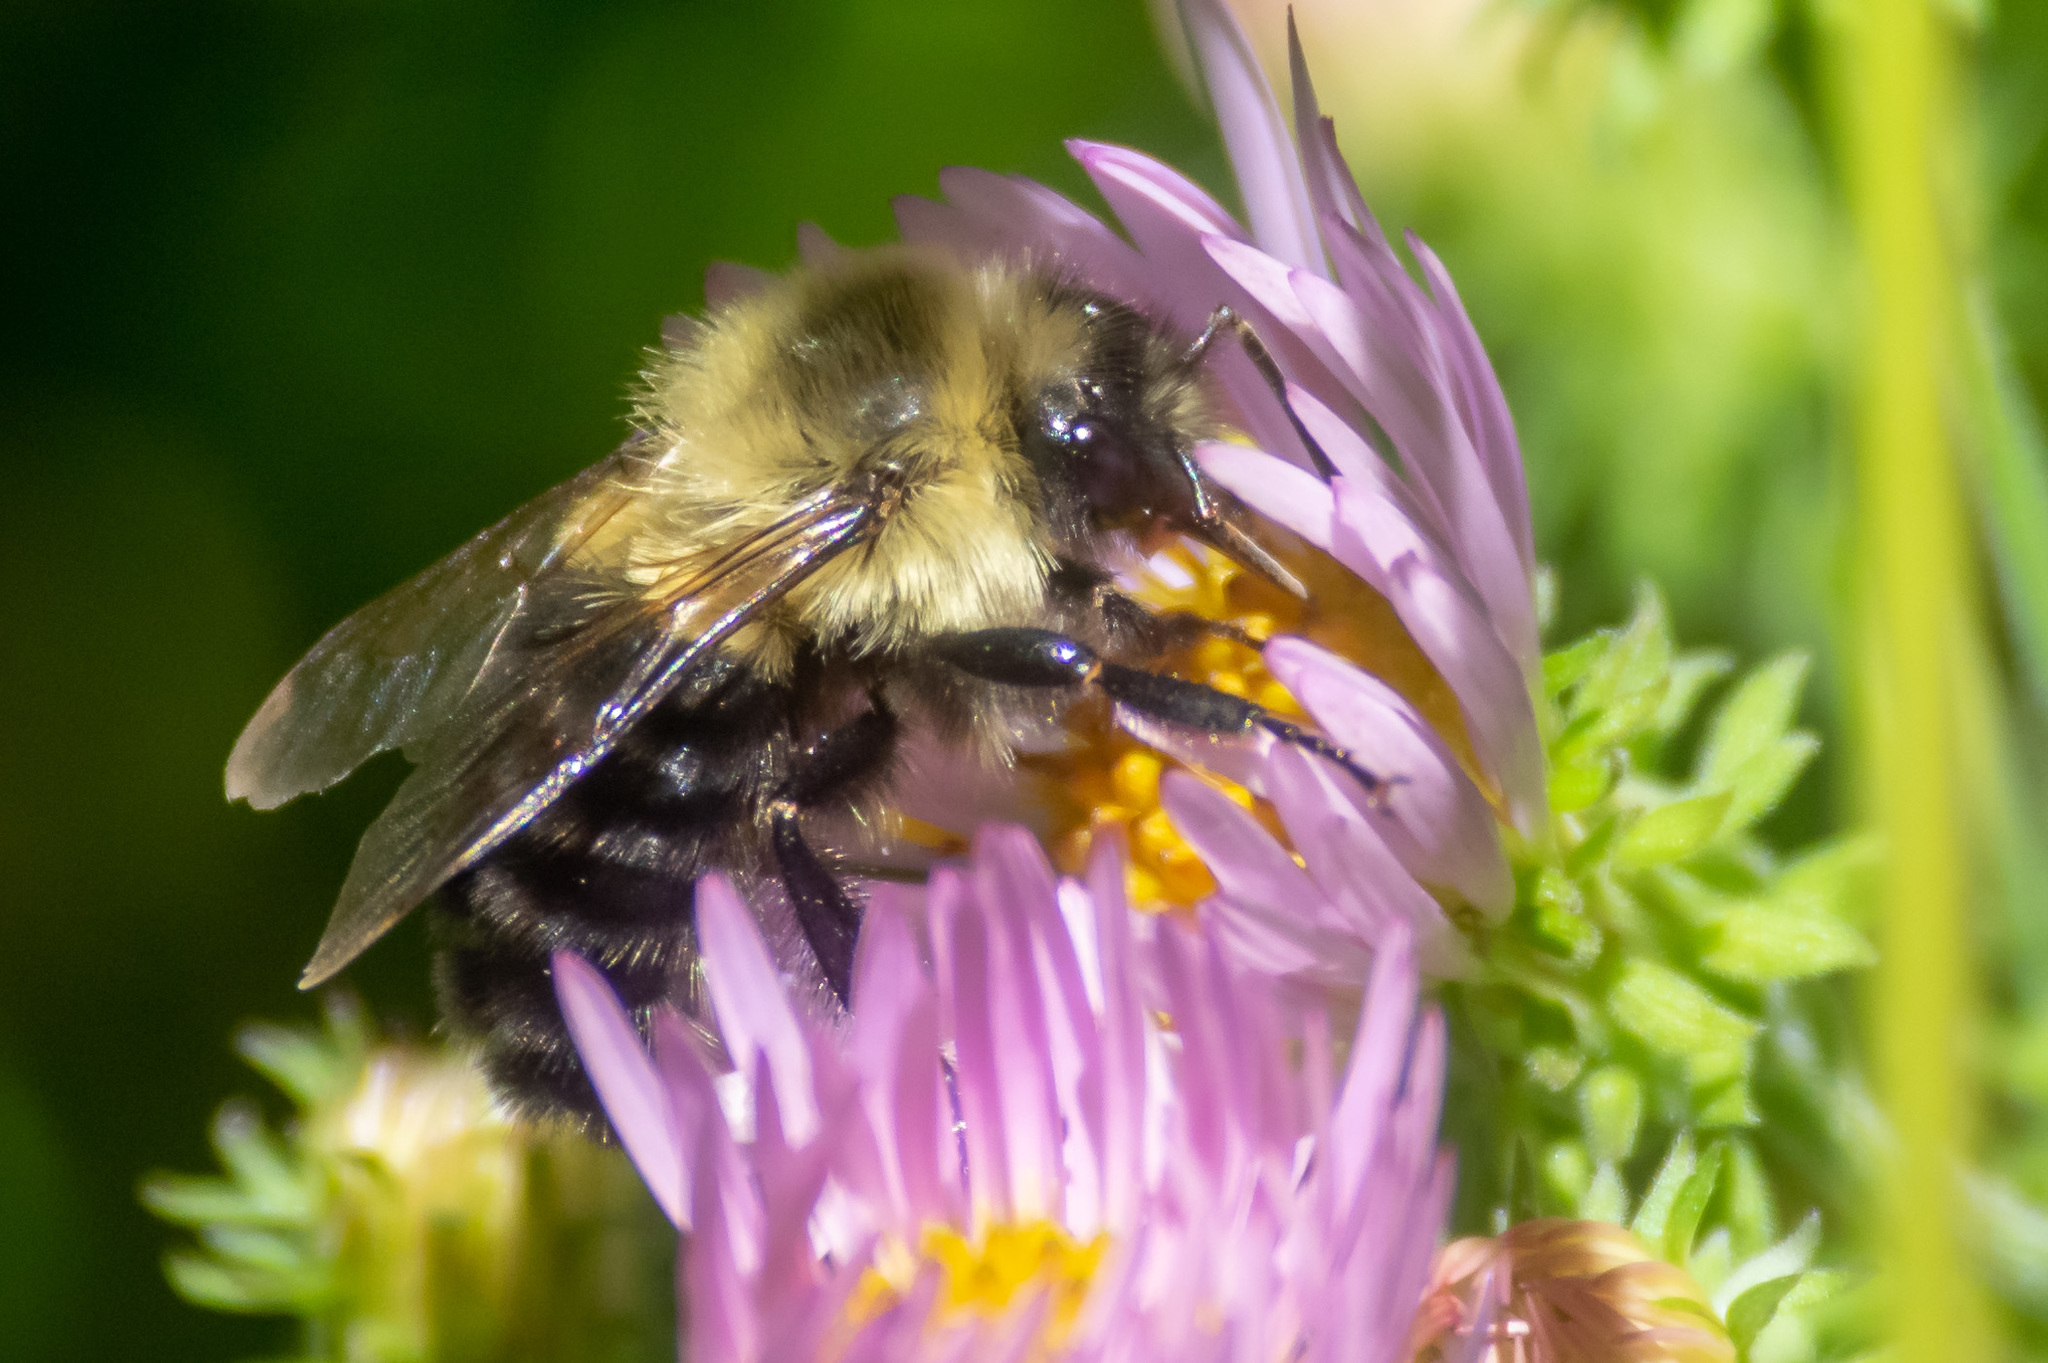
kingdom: Animalia
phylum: Arthropoda
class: Insecta
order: Hymenoptera
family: Apidae
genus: Bombus
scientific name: Bombus impatiens
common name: Common eastern bumble bee
